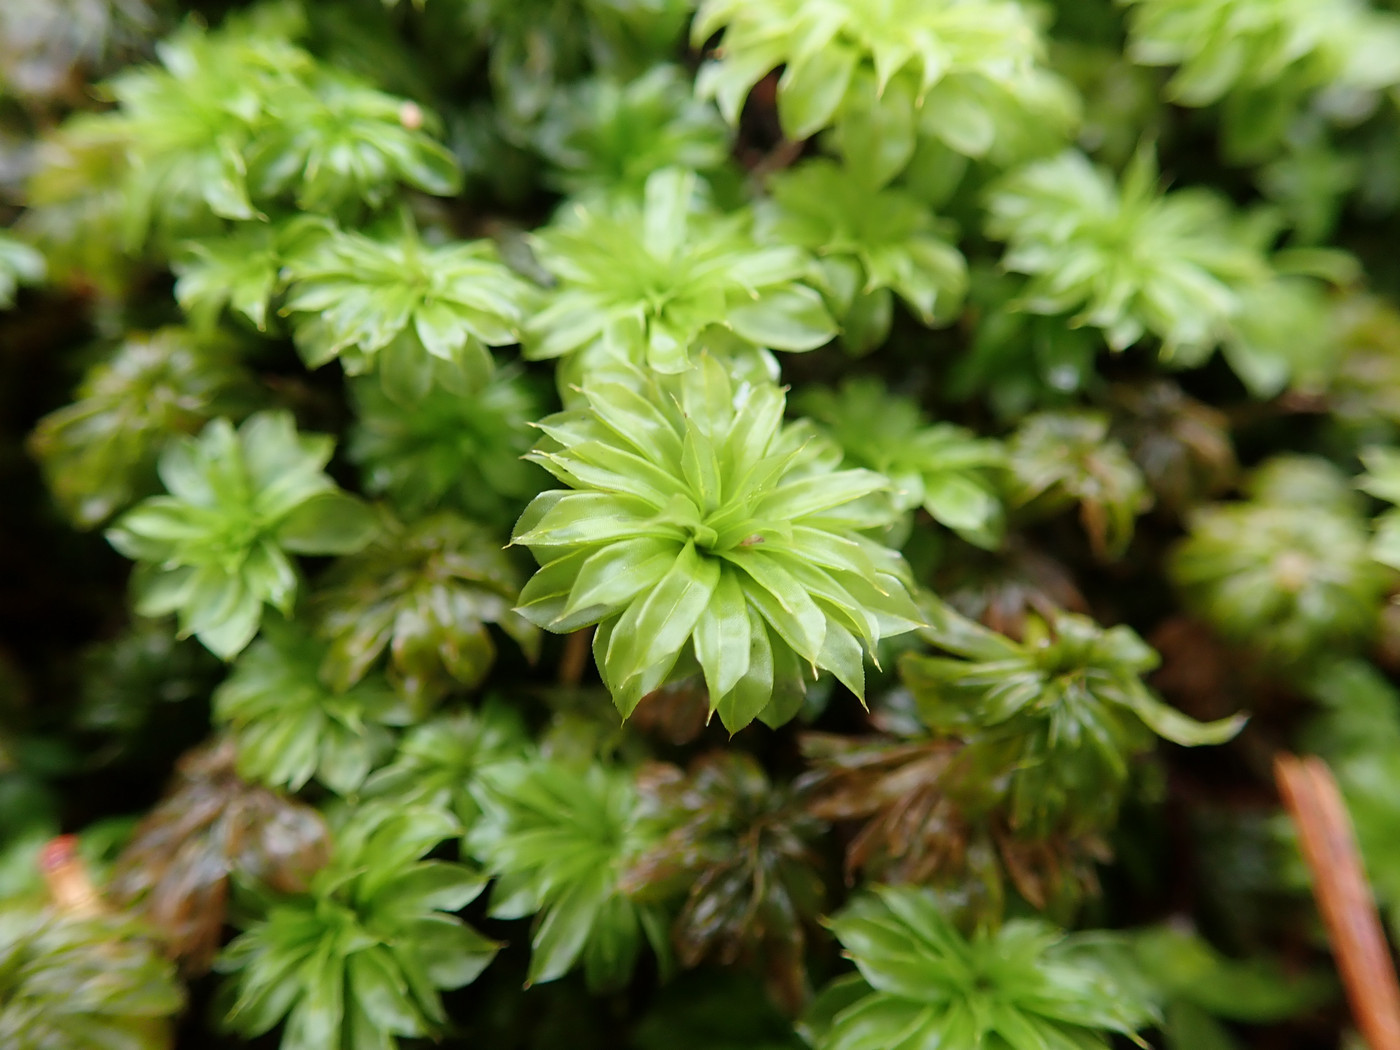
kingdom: Plantae
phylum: Bryophyta
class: Bryopsida
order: Bryales
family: Bryaceae
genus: Rhodobryum
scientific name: Rhodobryum ontariense
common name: Ontario rhodobryum moss
